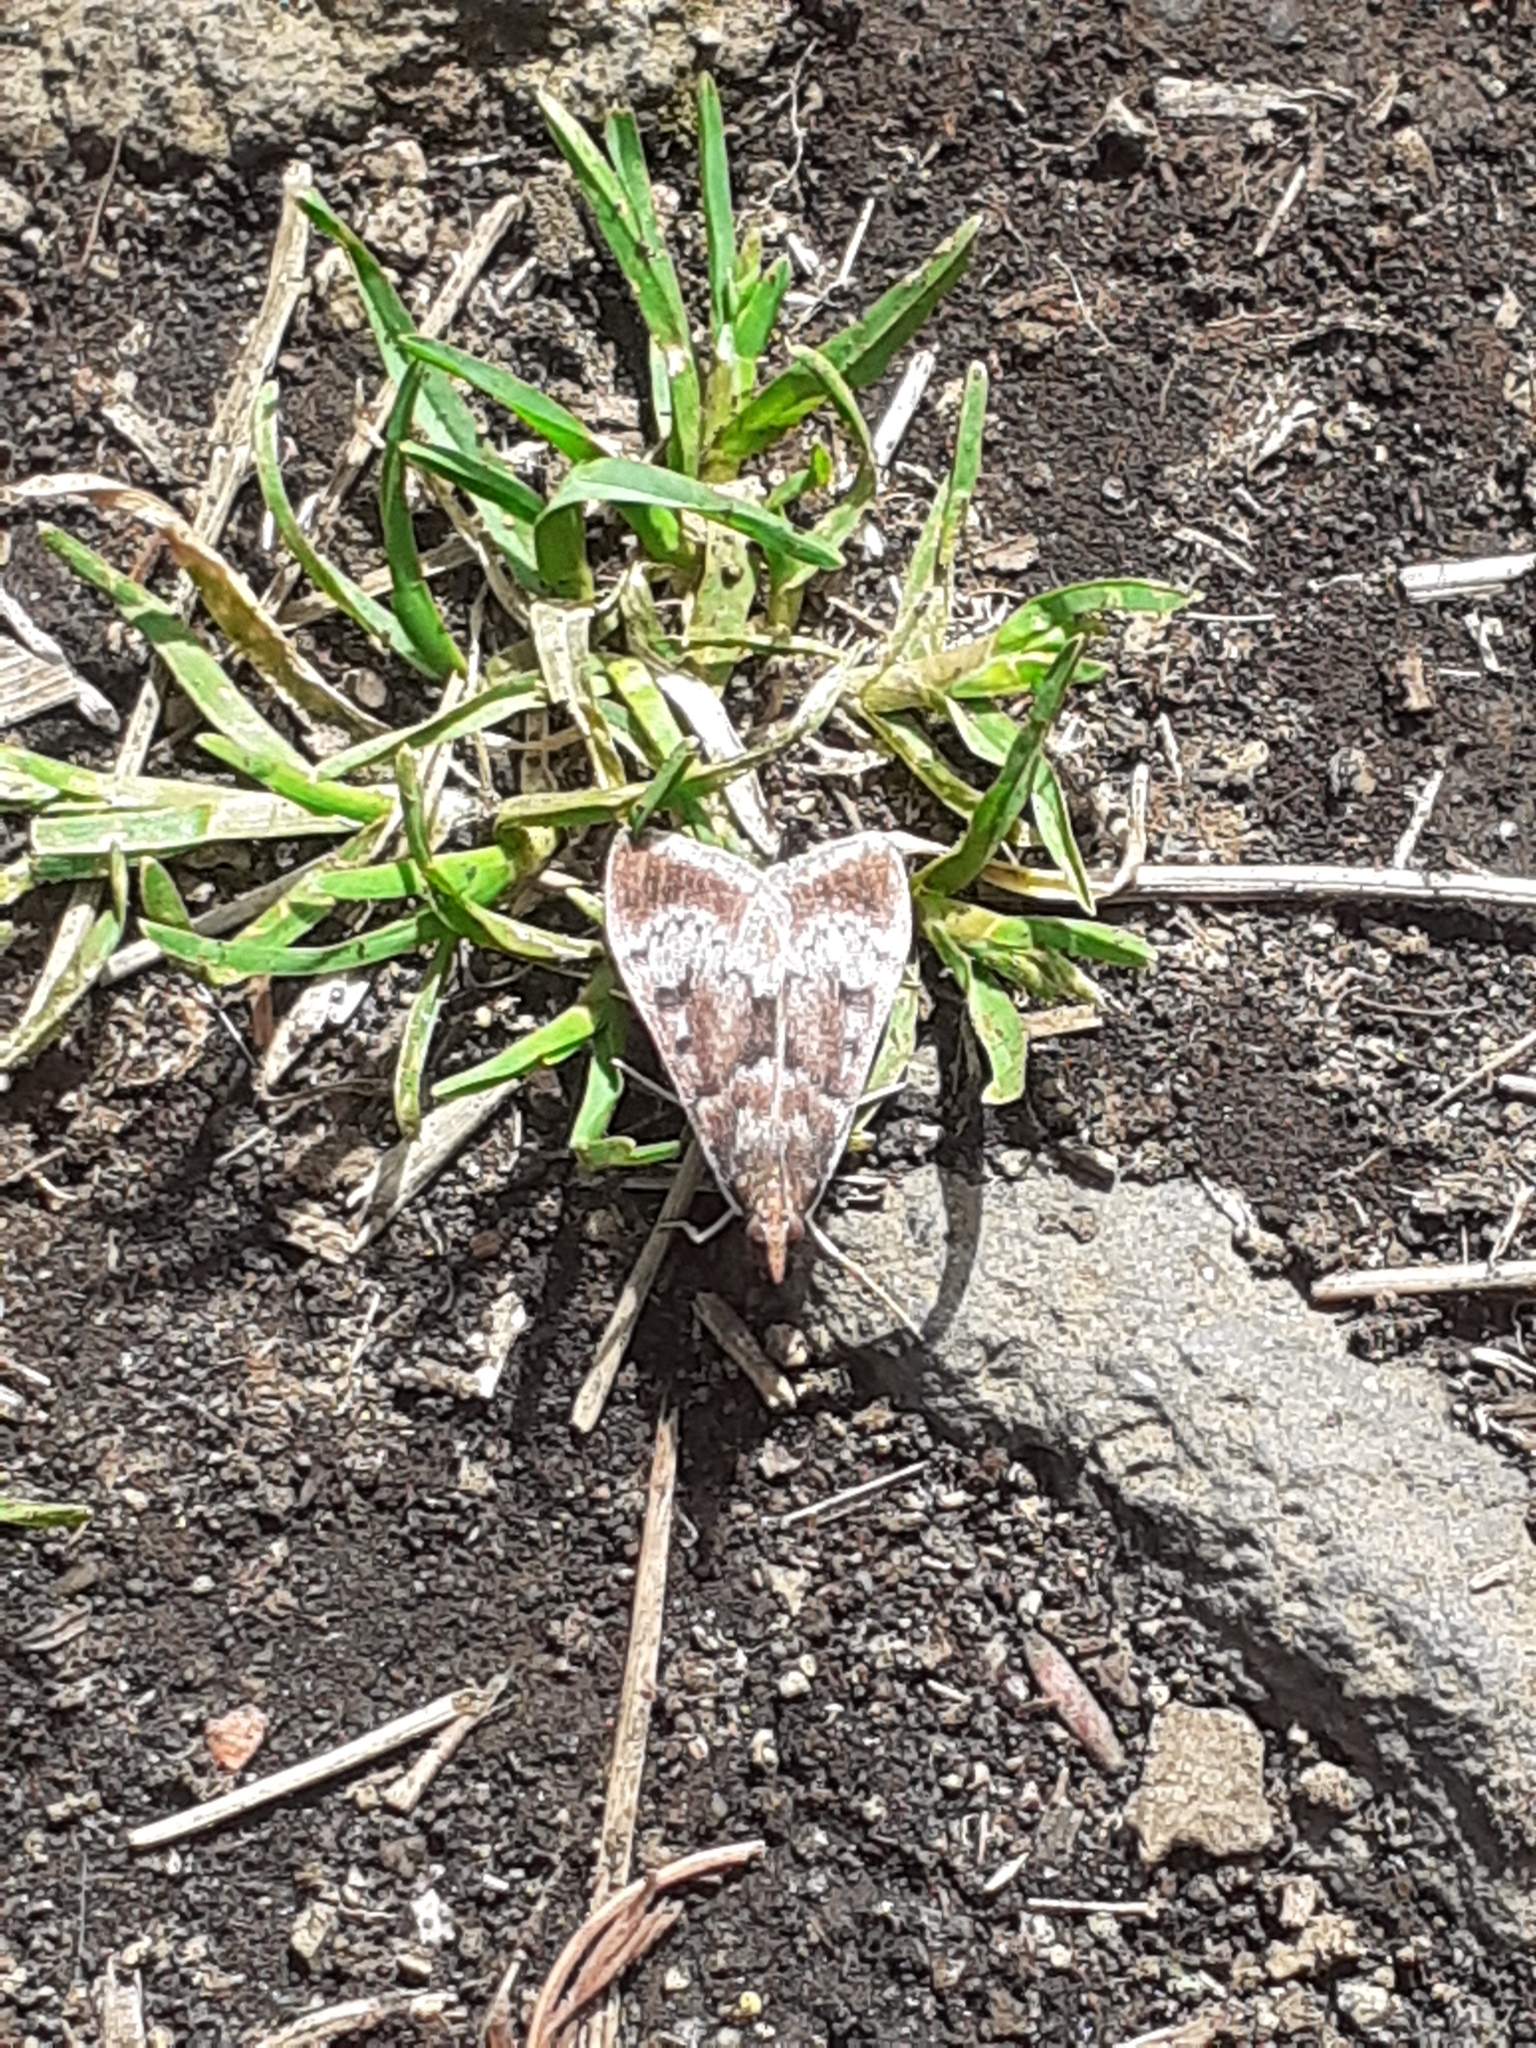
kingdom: Animalia
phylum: Arthropoda
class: Insecta
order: Lepidoptera
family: Crambidae
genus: Uresiphita
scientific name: Uresiphita gilvata
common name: Yellow-underwing pearl
